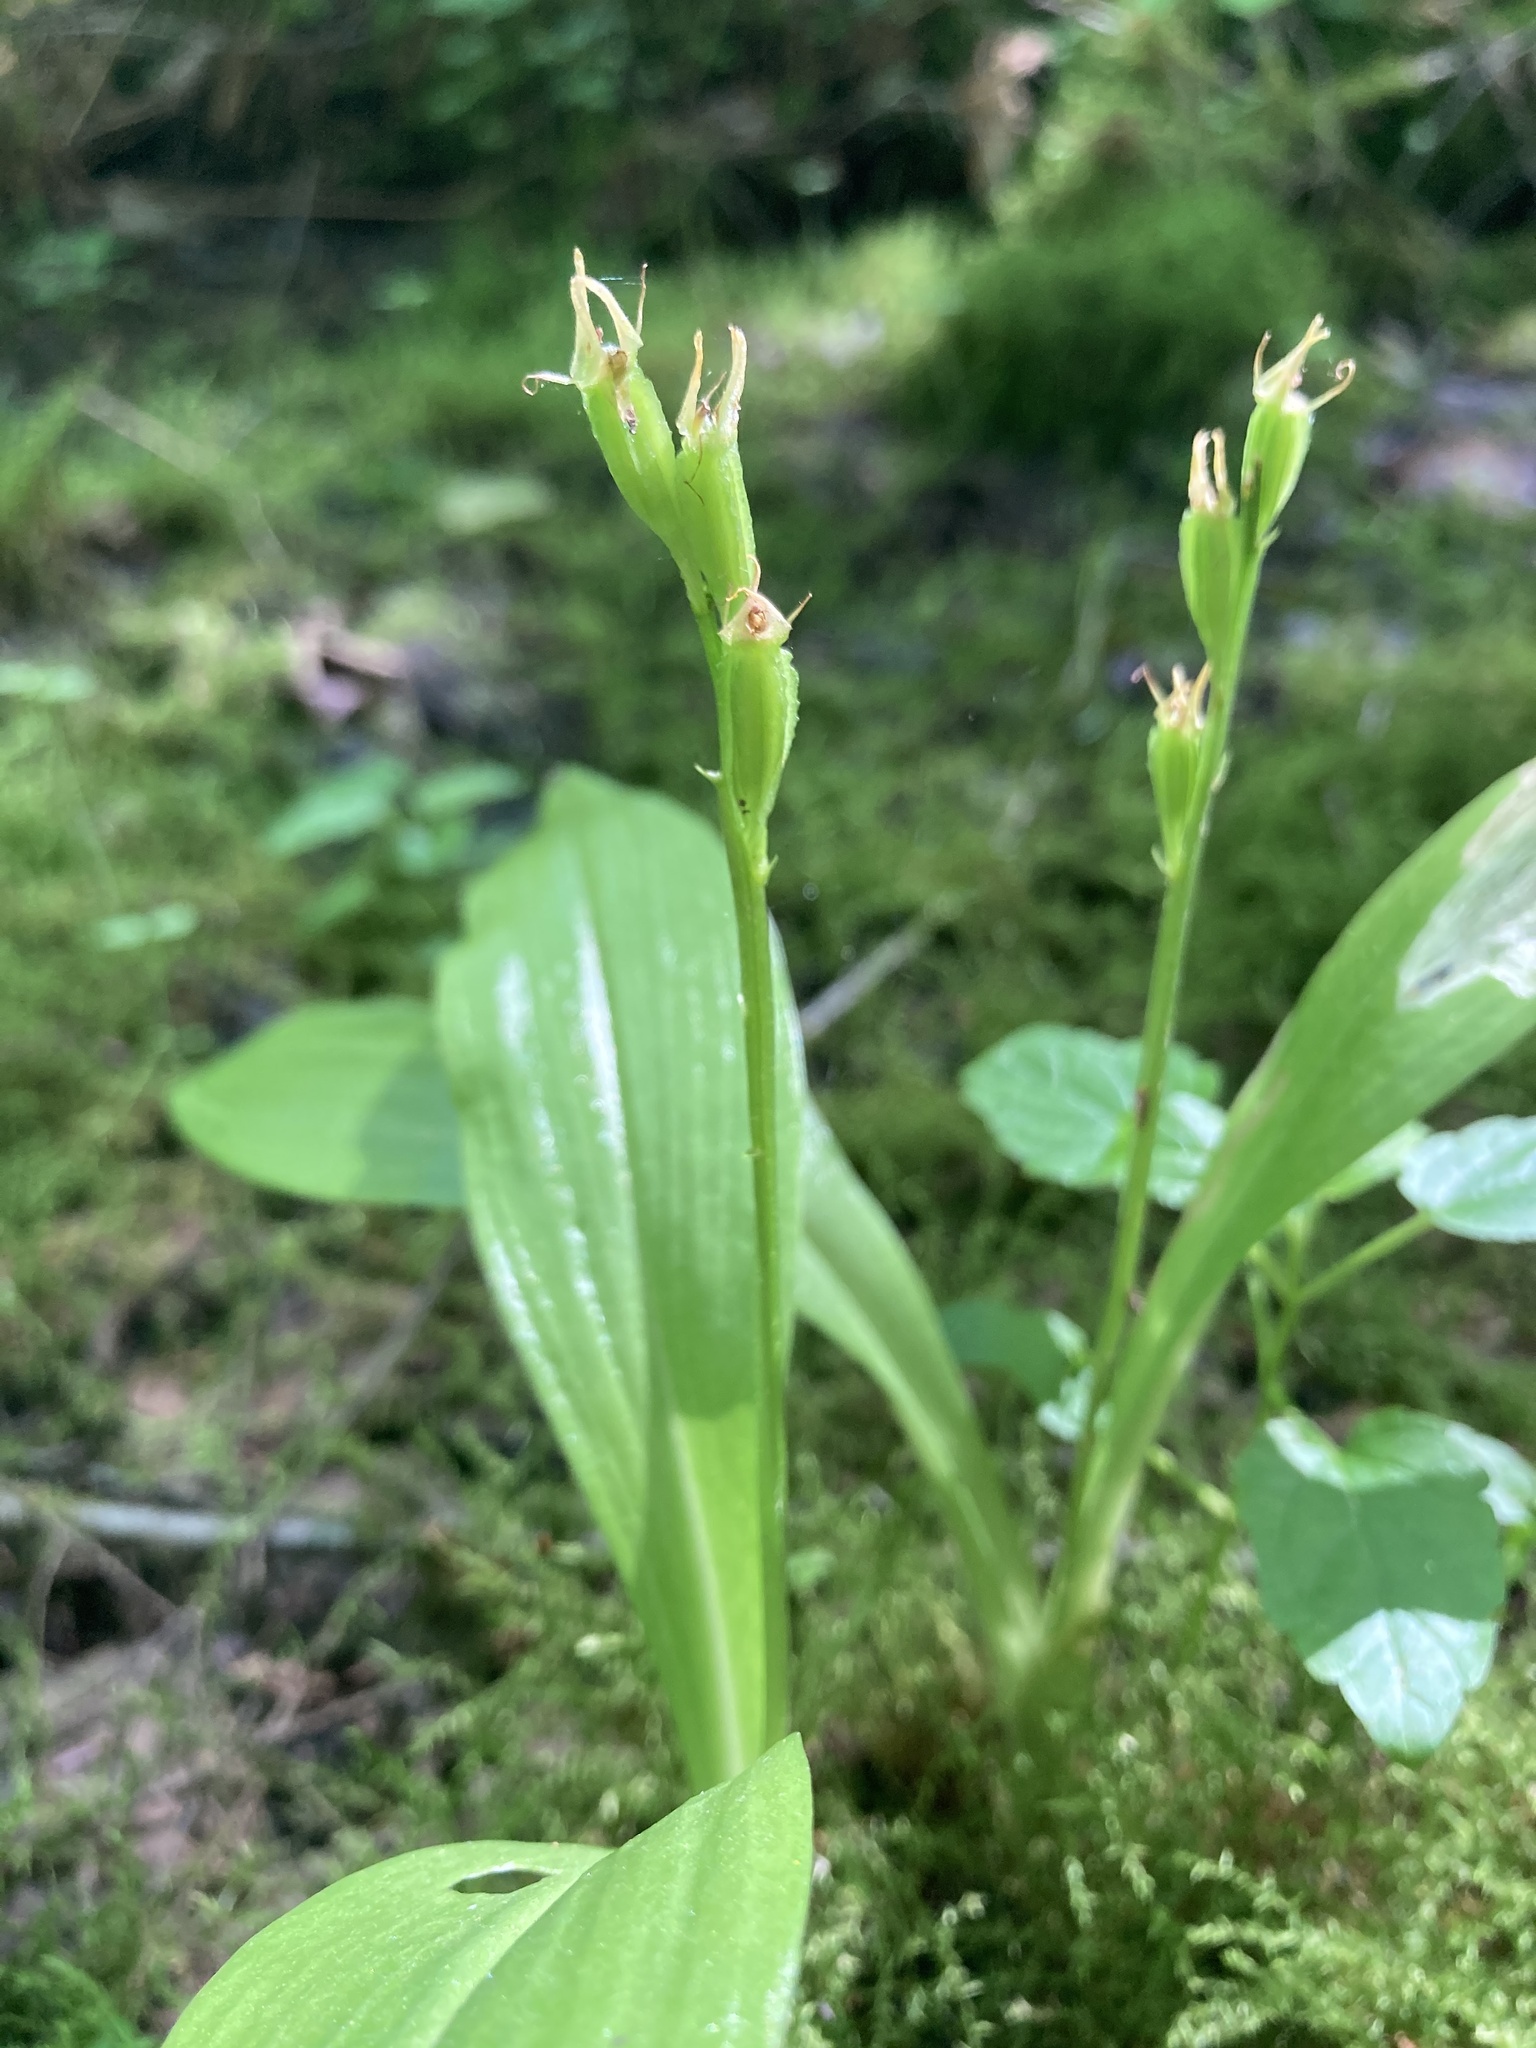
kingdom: Animalia
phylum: Arthropoda
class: Insecta
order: Coleoptera
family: Curculionidae
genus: Liparis
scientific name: Liparis loeselii
